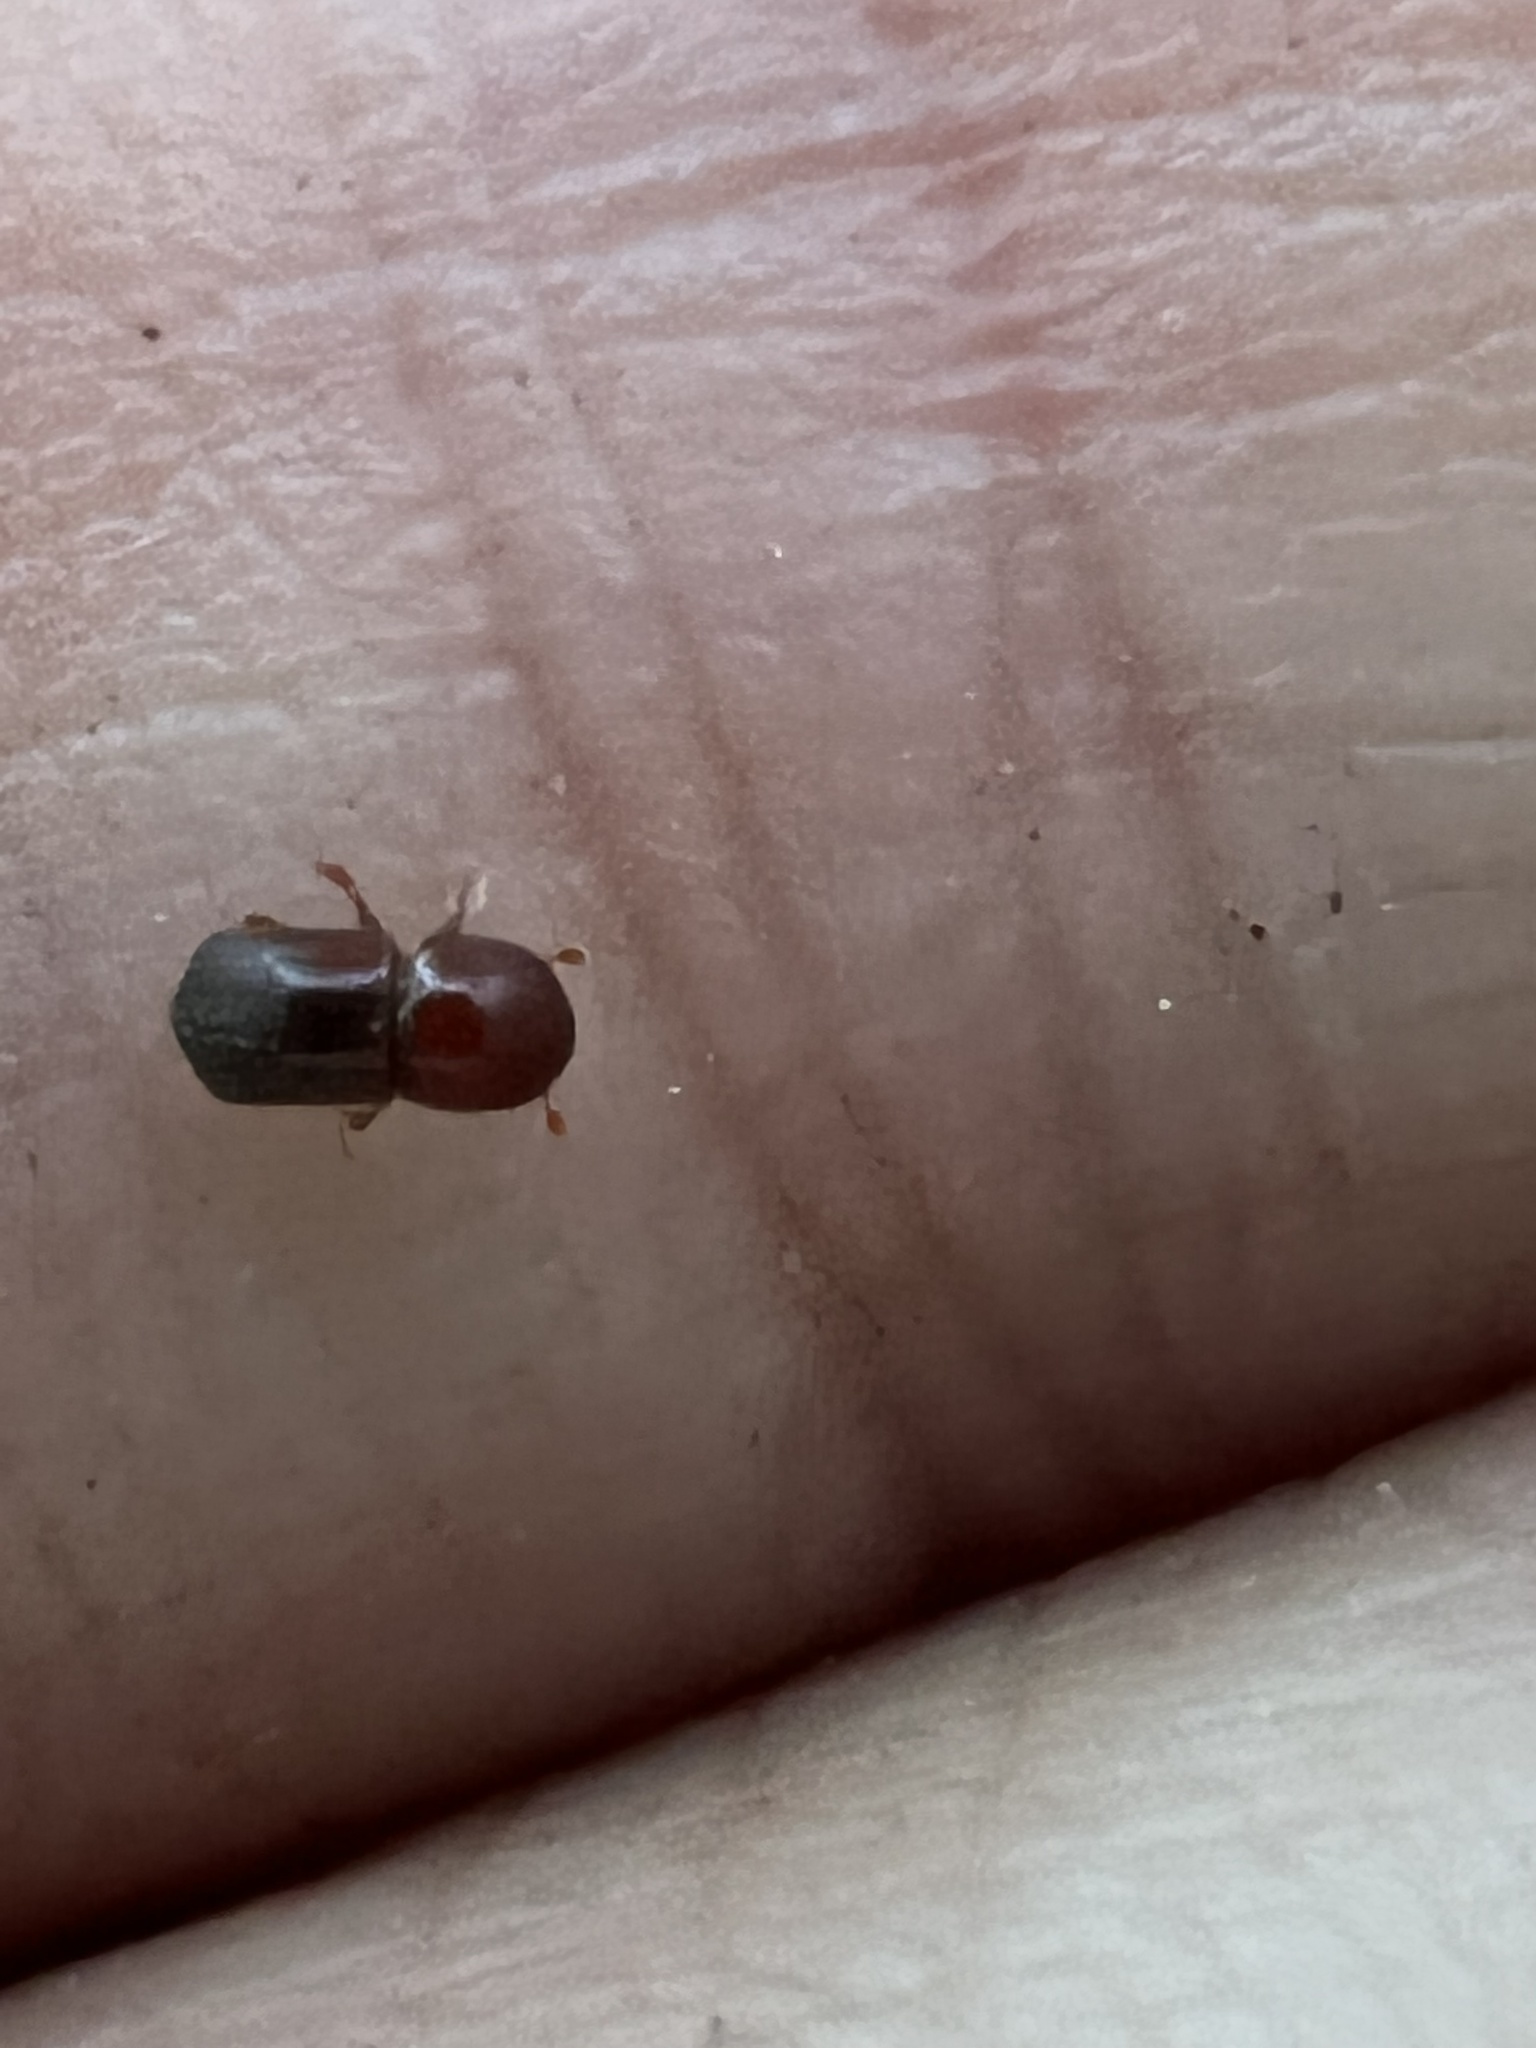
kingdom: Animalia
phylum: Arthropoda
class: Insecta
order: Coleoptera
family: Curculionidae
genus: Xylosandrus
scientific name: Xylosandrus crassiusculus
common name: Granulate ambrosia beetle
